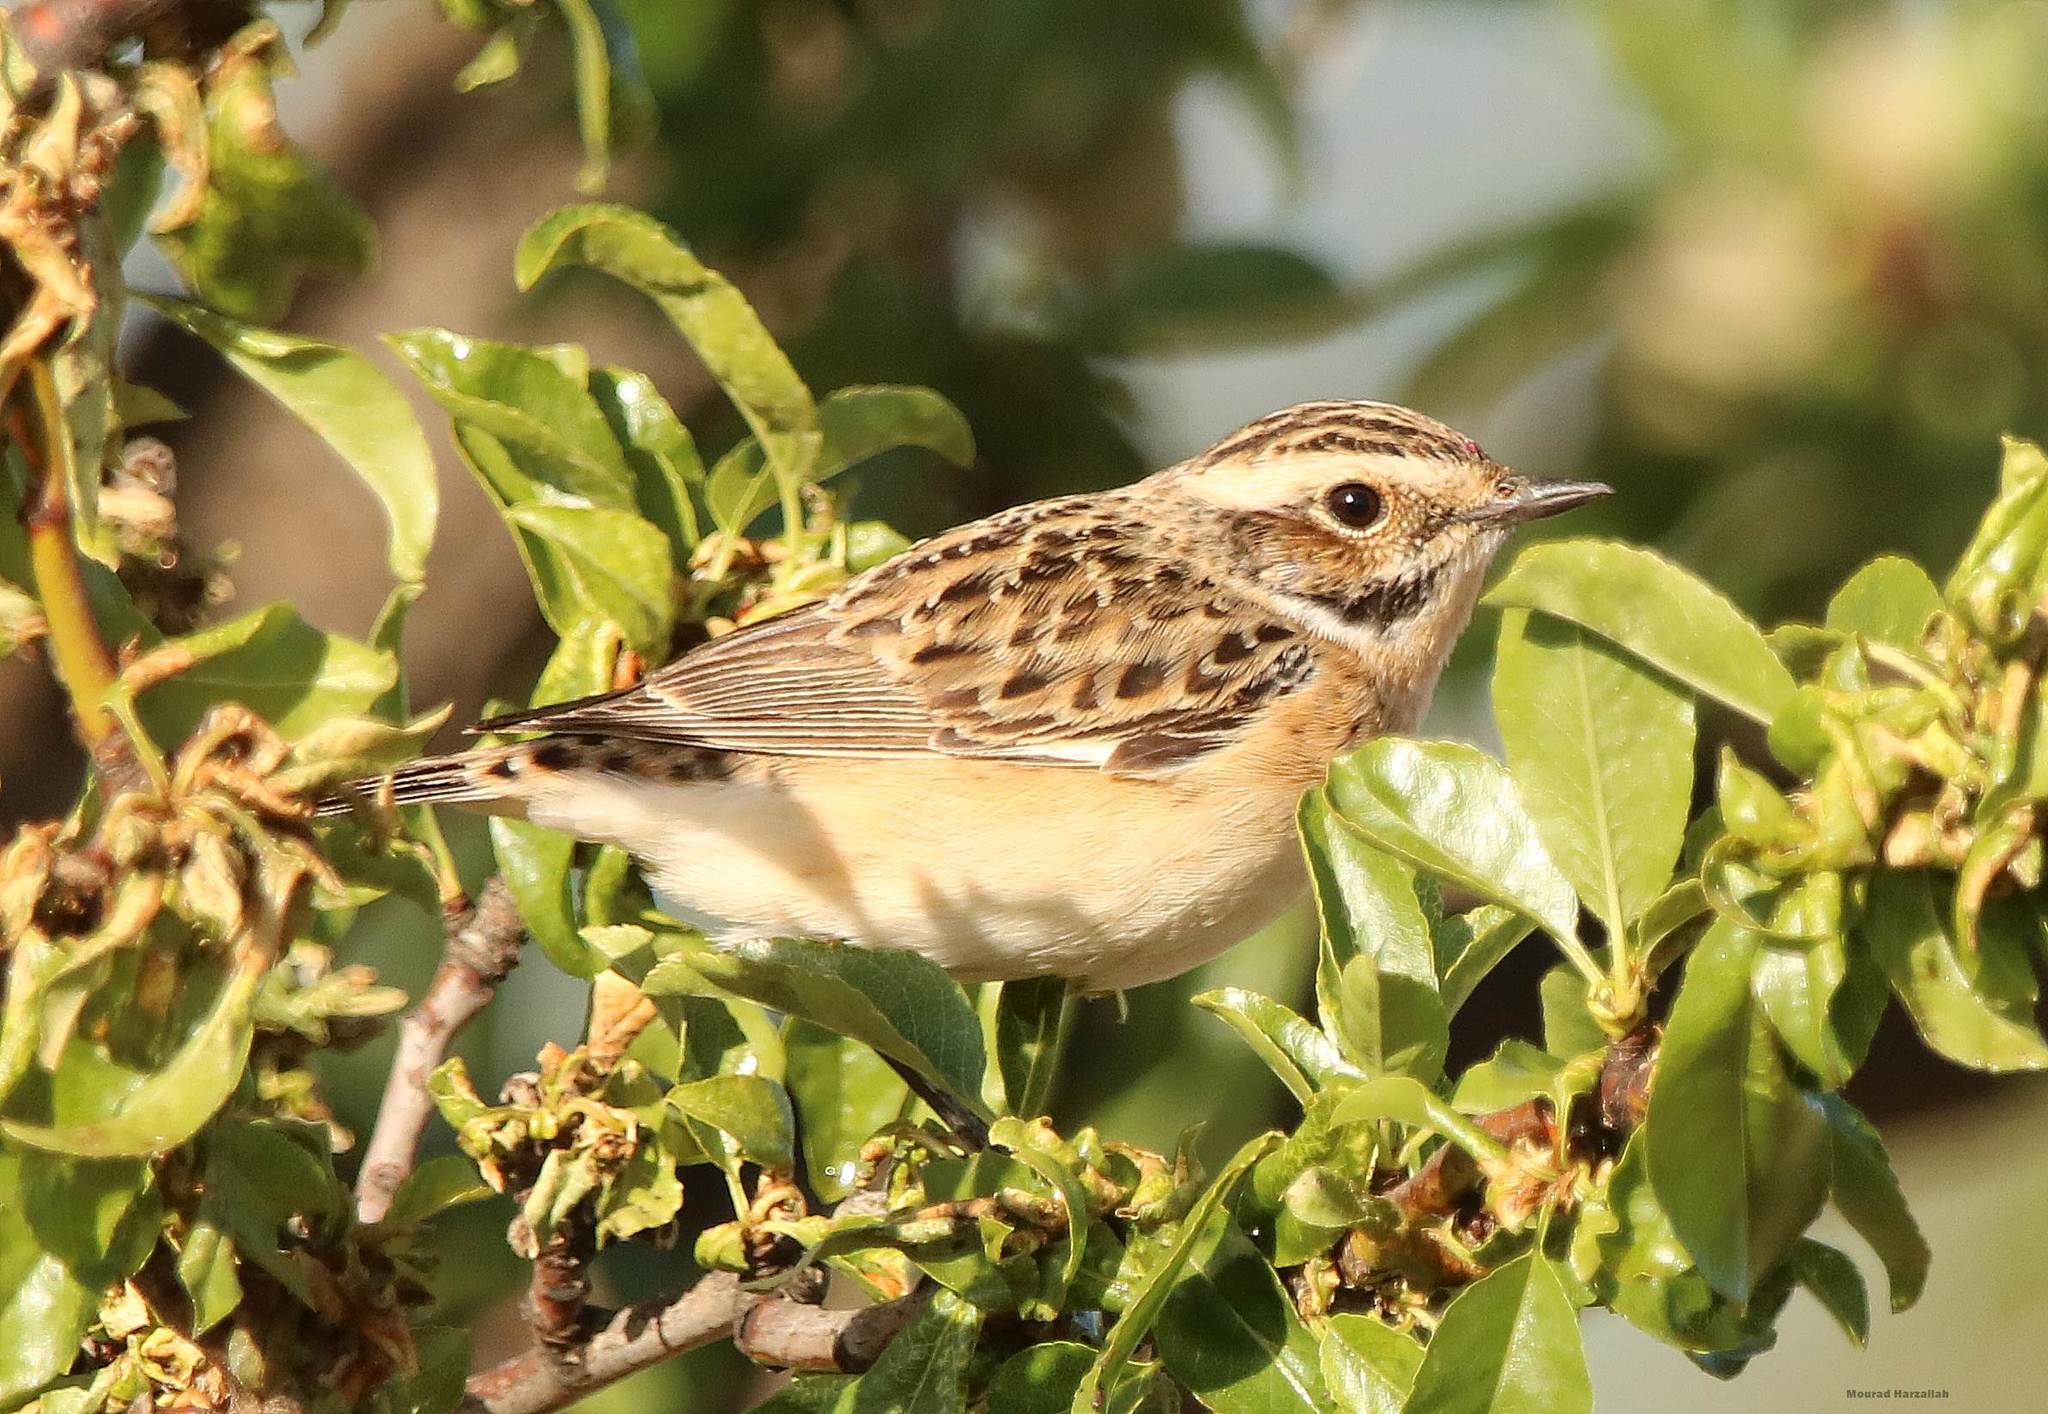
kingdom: Animalia
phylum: Chordata
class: Aves
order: Passeriformes
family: Muscicapidae
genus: Saxicola
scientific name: Saxicola rubetra
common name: Whinchat
